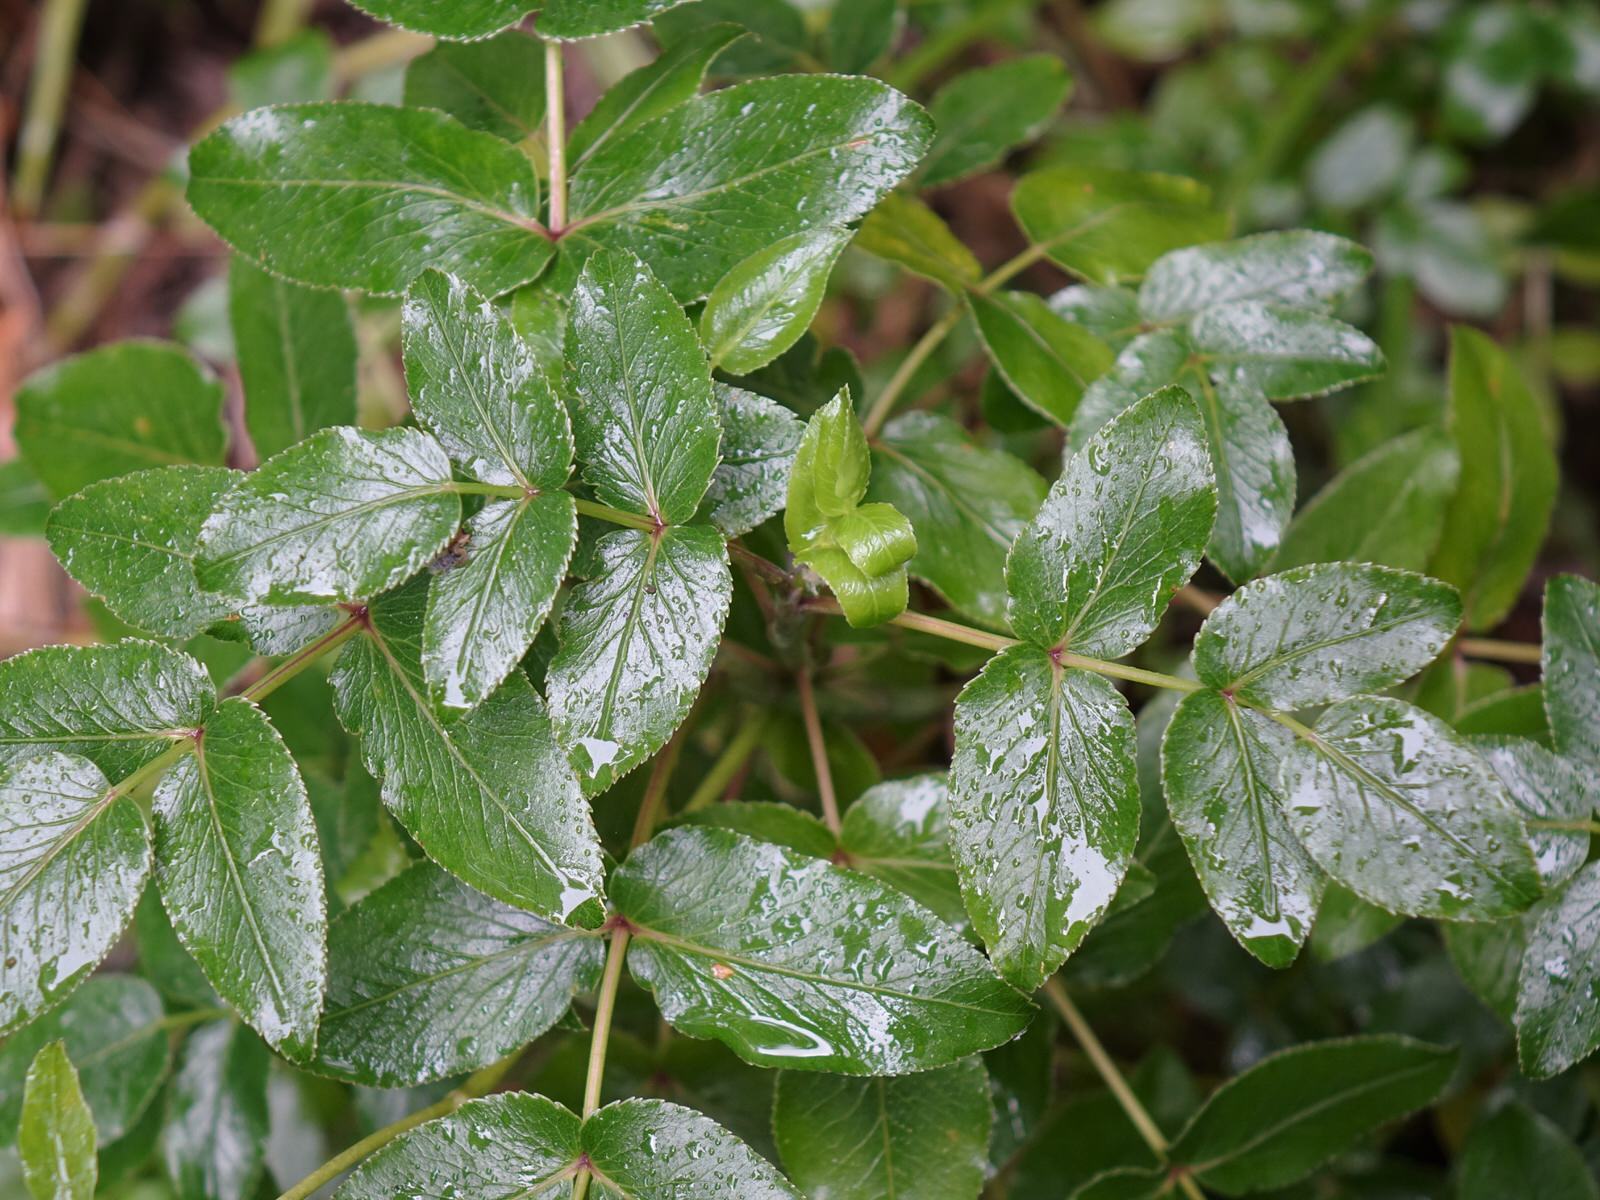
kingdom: Plantae
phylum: Tracheophyta
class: Magnoliopsida
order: Apiales
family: Apiaceae
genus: Scandia
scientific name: Scandia rosifolia
